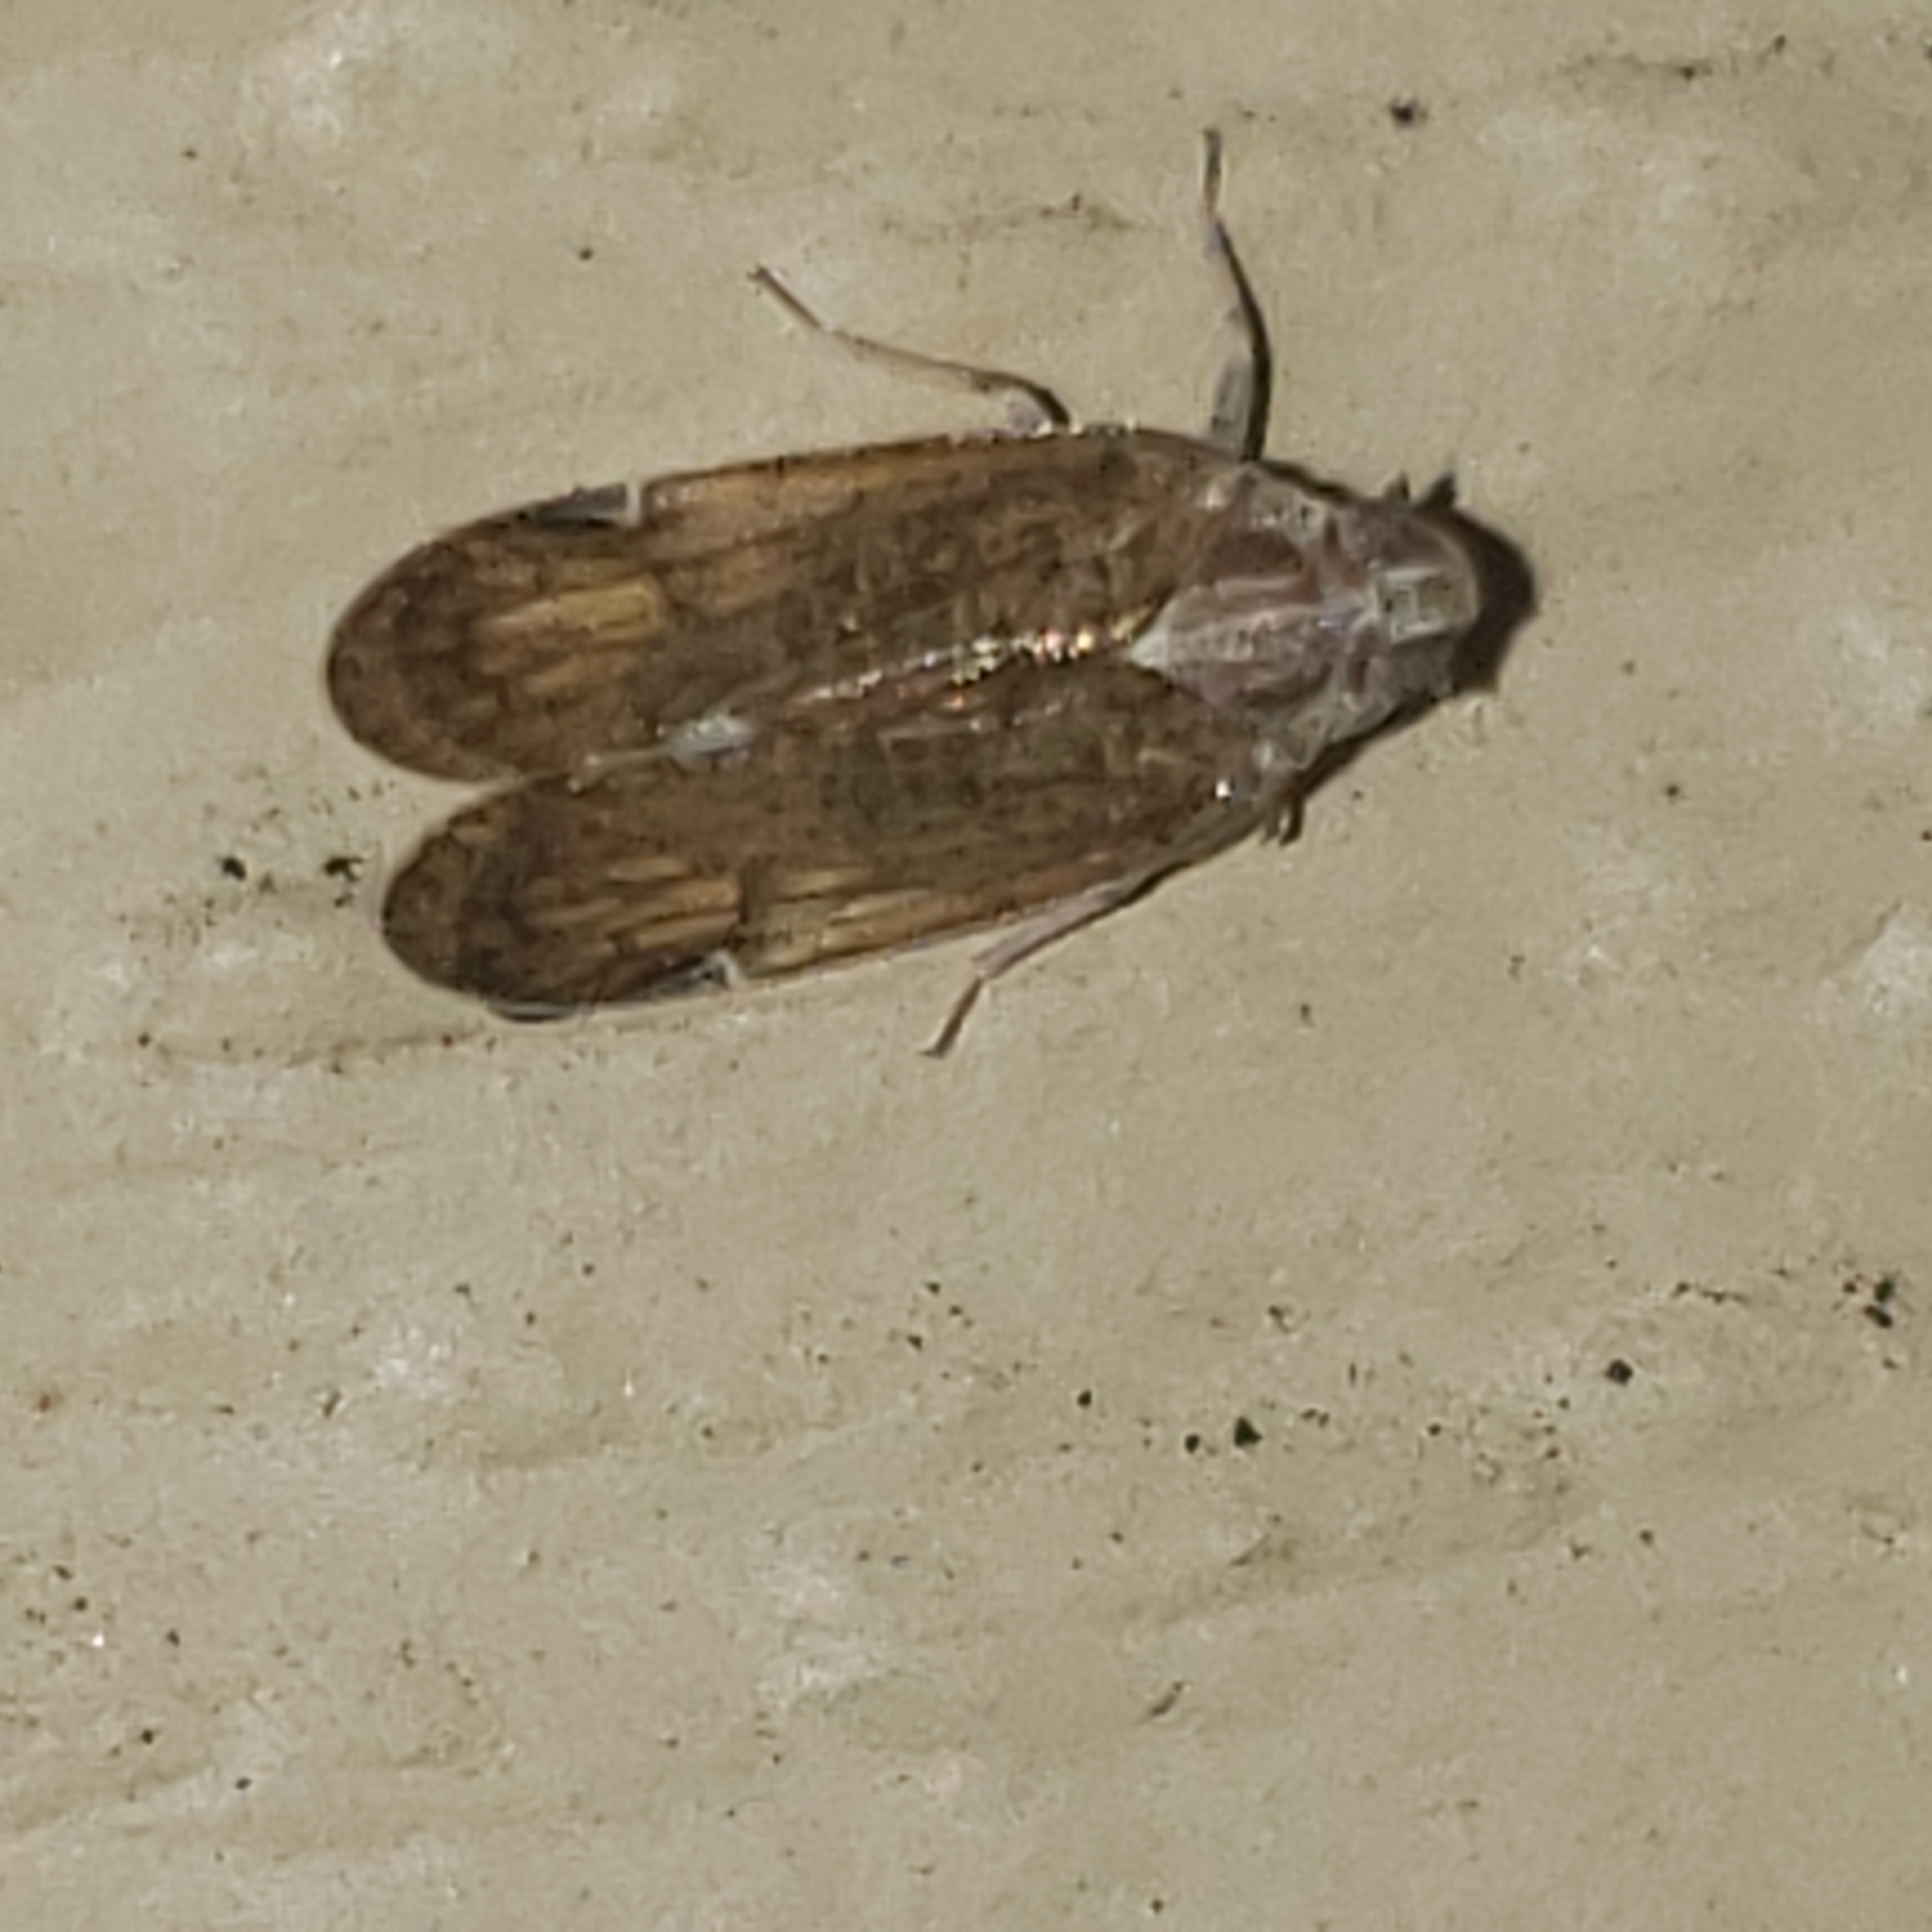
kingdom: Animalia
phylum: Arthropoda
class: Insecta
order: Hemiptera
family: Cixiidae
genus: Melanoliarus
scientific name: Melanoliarus placitus
